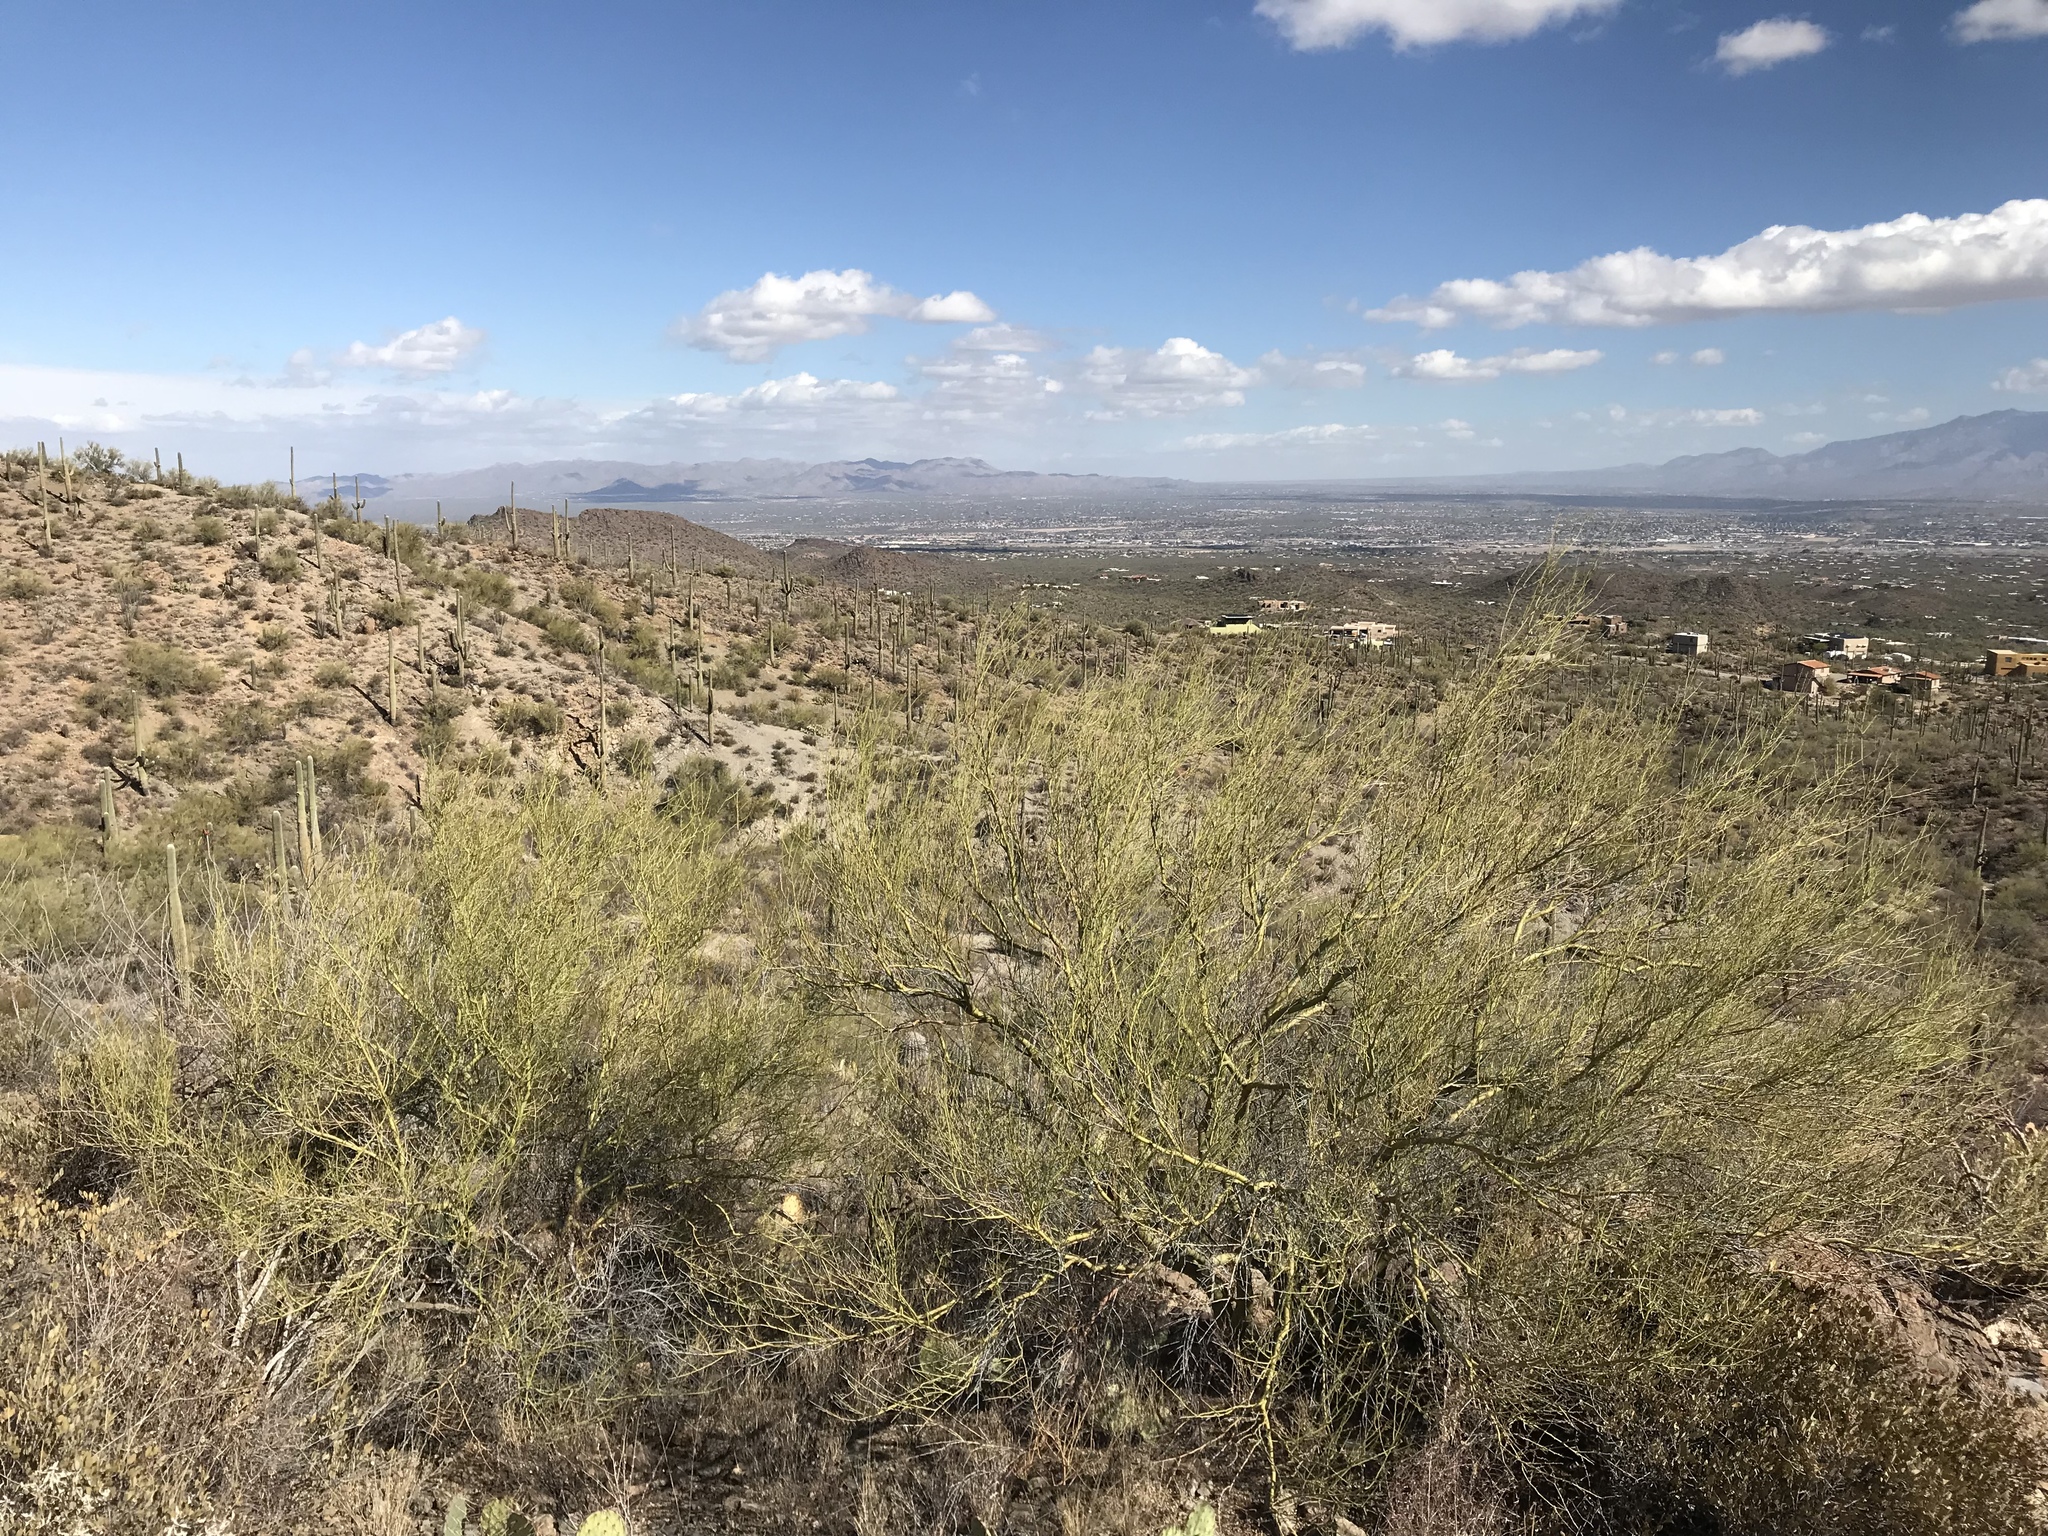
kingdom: Plantae
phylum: Tracheophyta
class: Magnoliopsida
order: Fabales
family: Fabaceae
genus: Parkinsonia
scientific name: Parkinsonia microphylla
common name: Yellow paloverde
